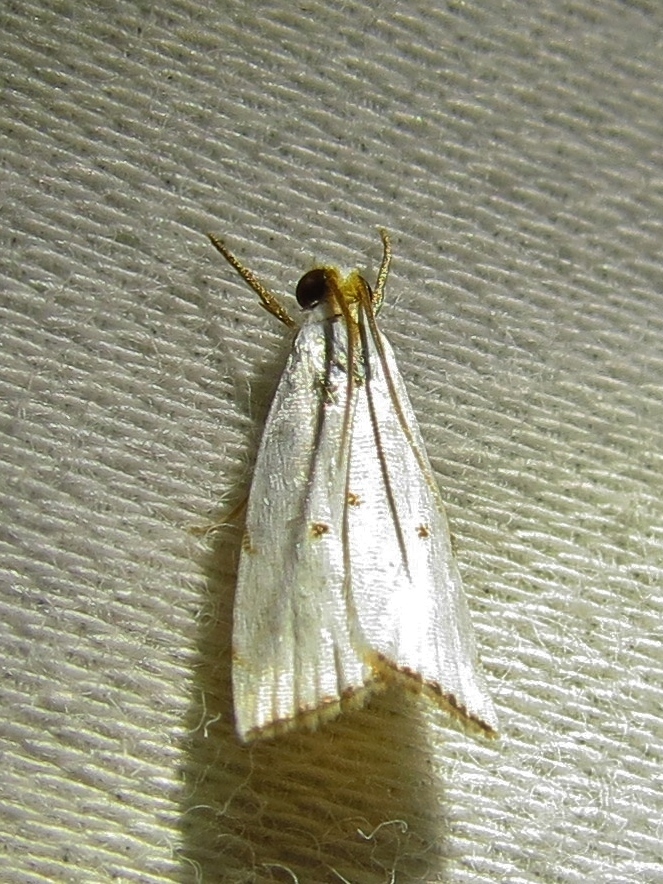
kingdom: Animalia
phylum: Arthropoda
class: Insecta
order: Lepidoptera
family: Crambidae
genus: Argyria
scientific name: Argyria pusillalis
